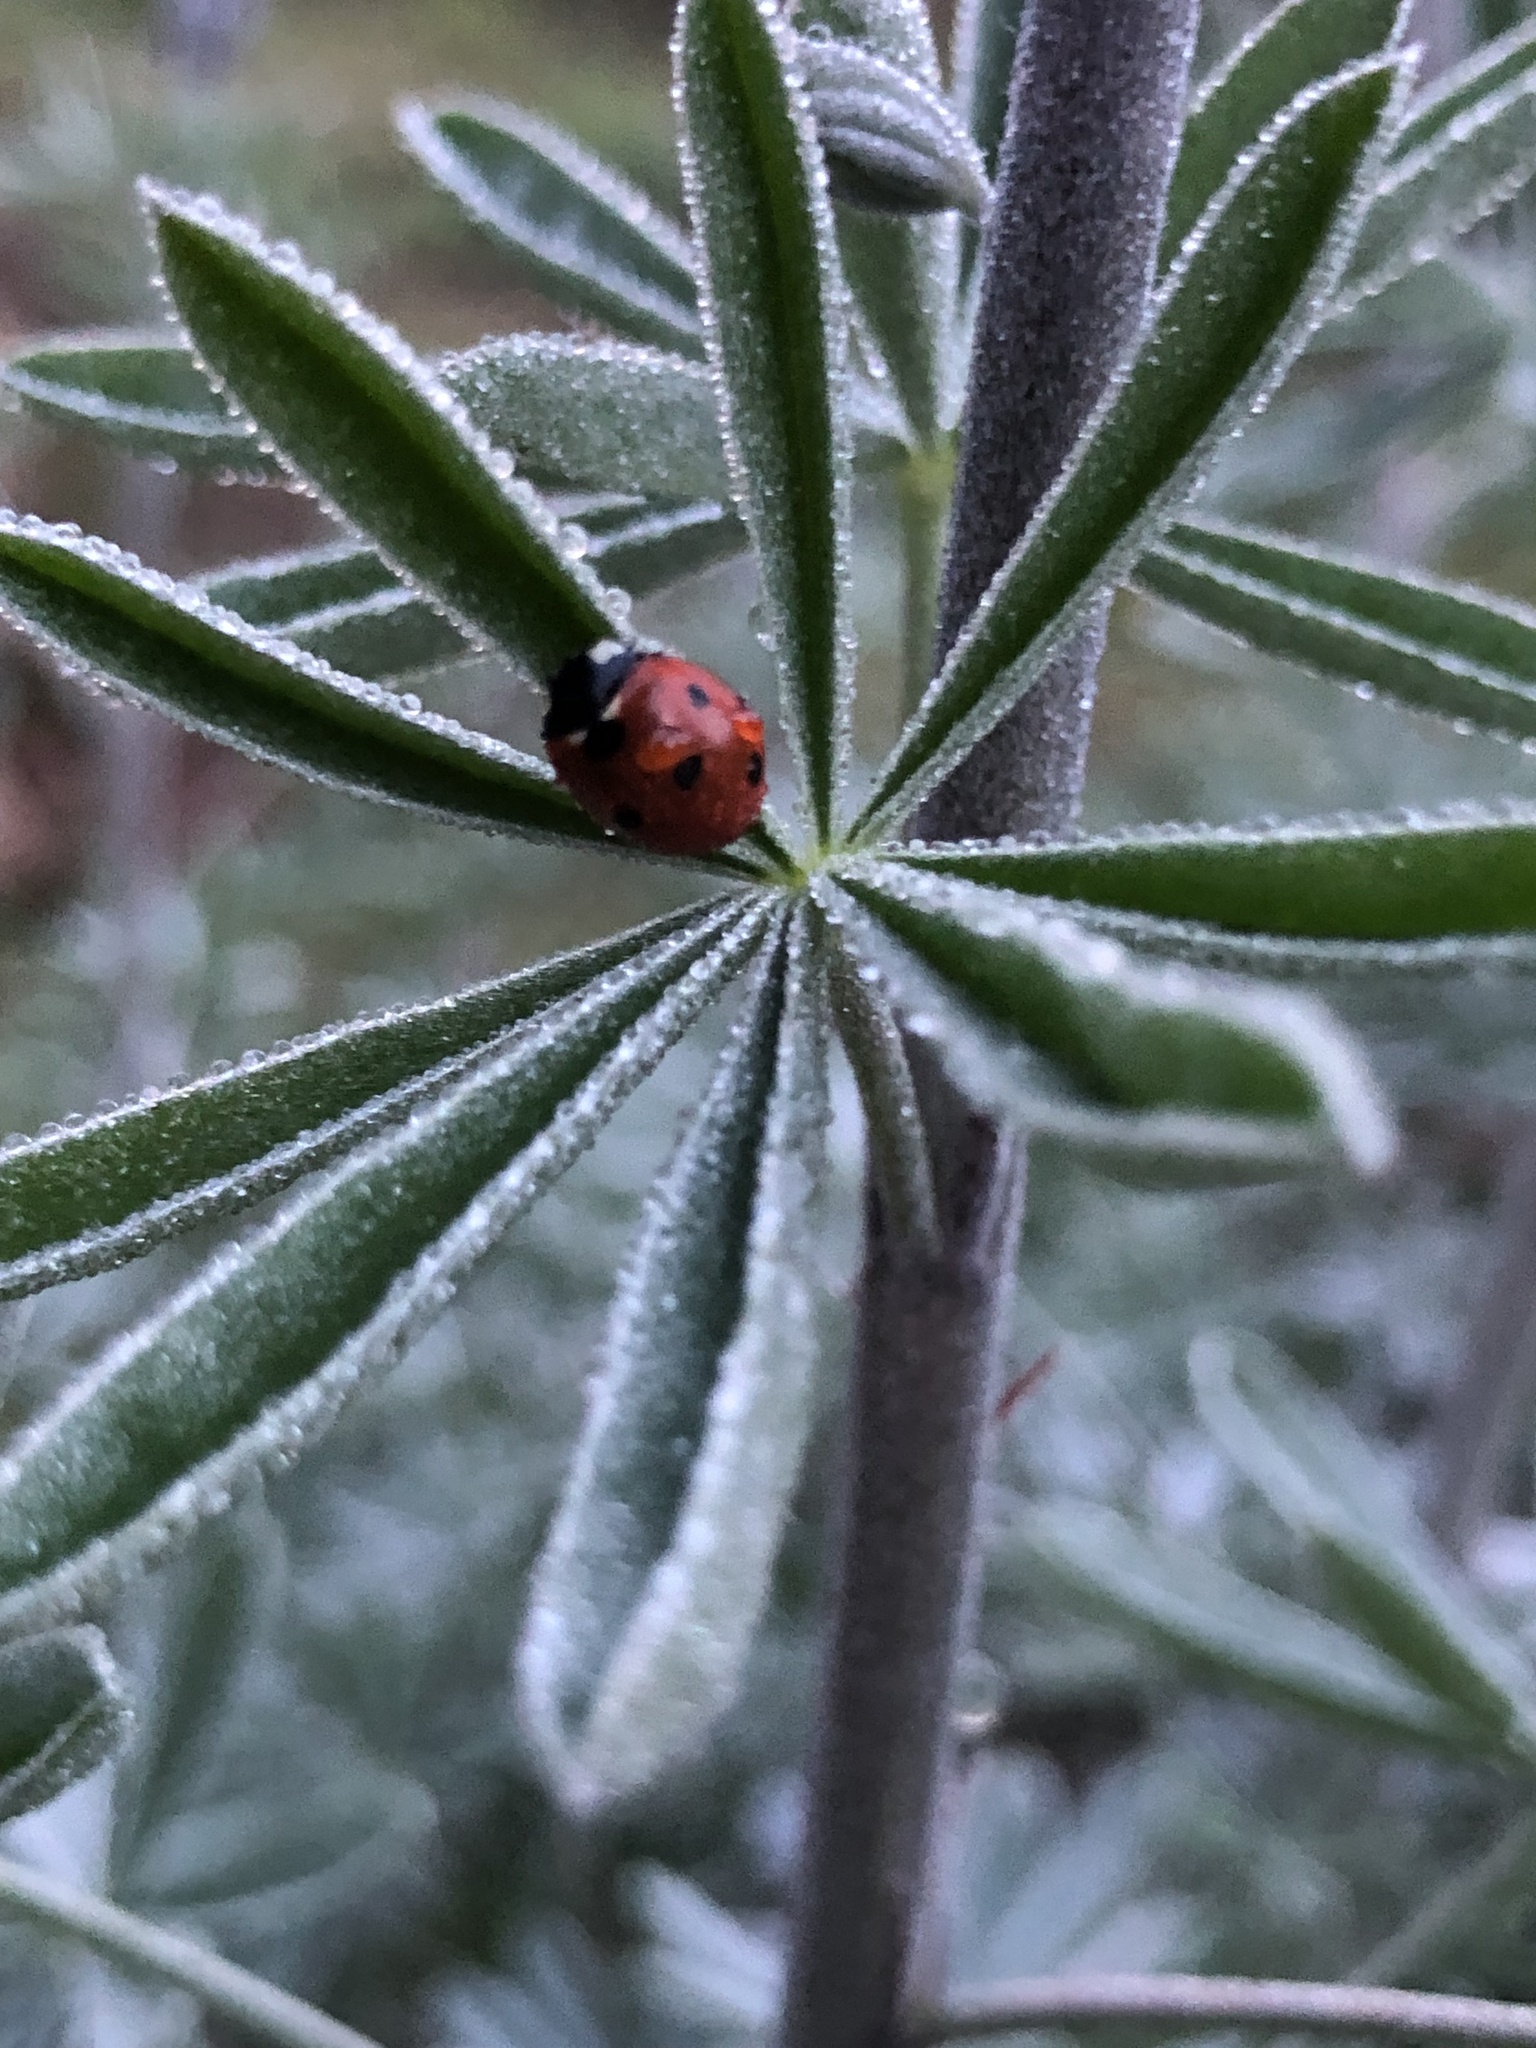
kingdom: Animalia
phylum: Arthropoda
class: Insecta
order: Coleoptera
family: Coccinellidae
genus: Coccinella
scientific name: Coccinella septempunctata
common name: Sevenspotted lady beetle
